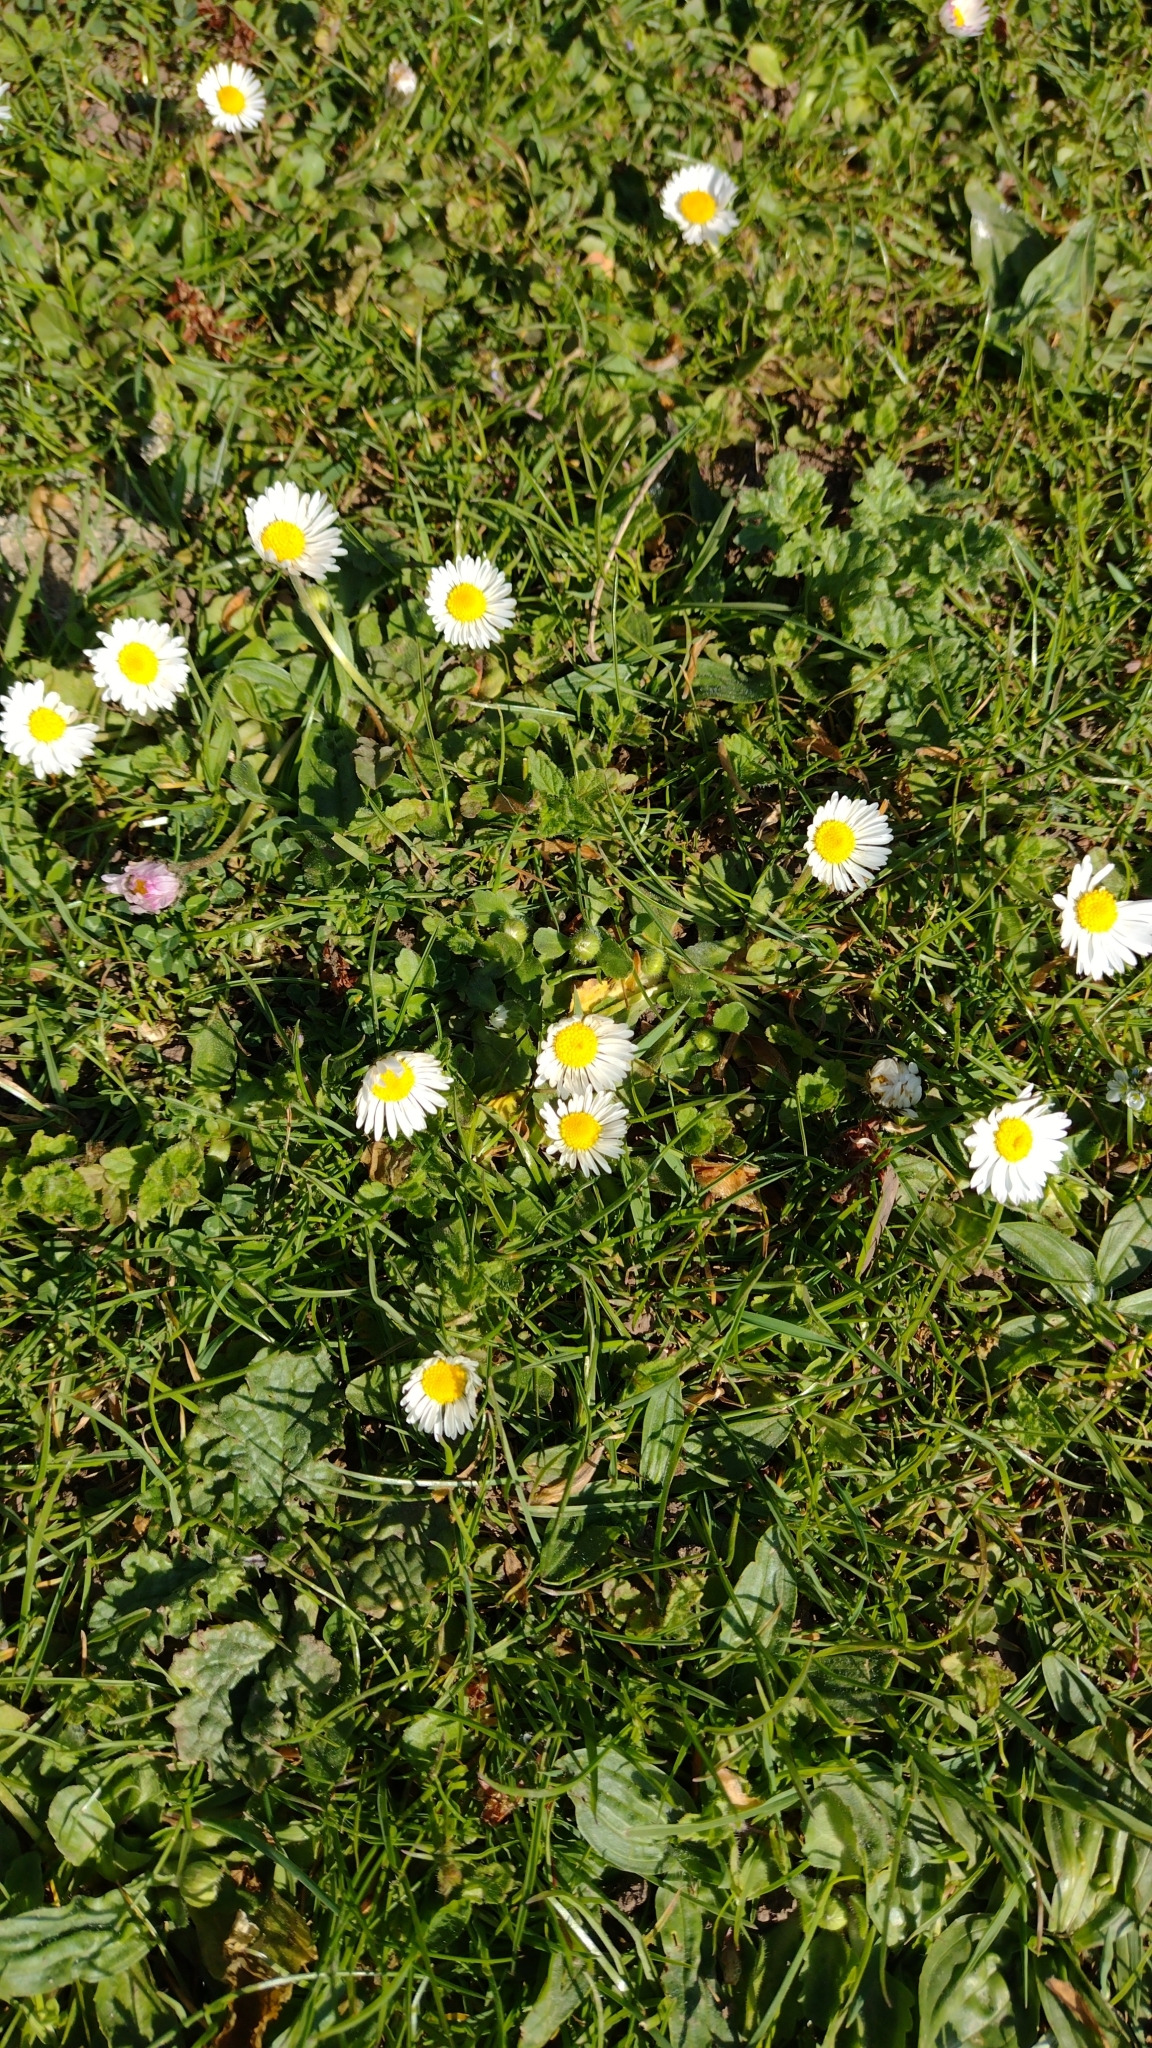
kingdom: Plantae
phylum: Tracheophyta
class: Magnoliopsida
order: Asterales
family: Asteraceae
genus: Bellis
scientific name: Bellis perennis
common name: Lawndaisy
